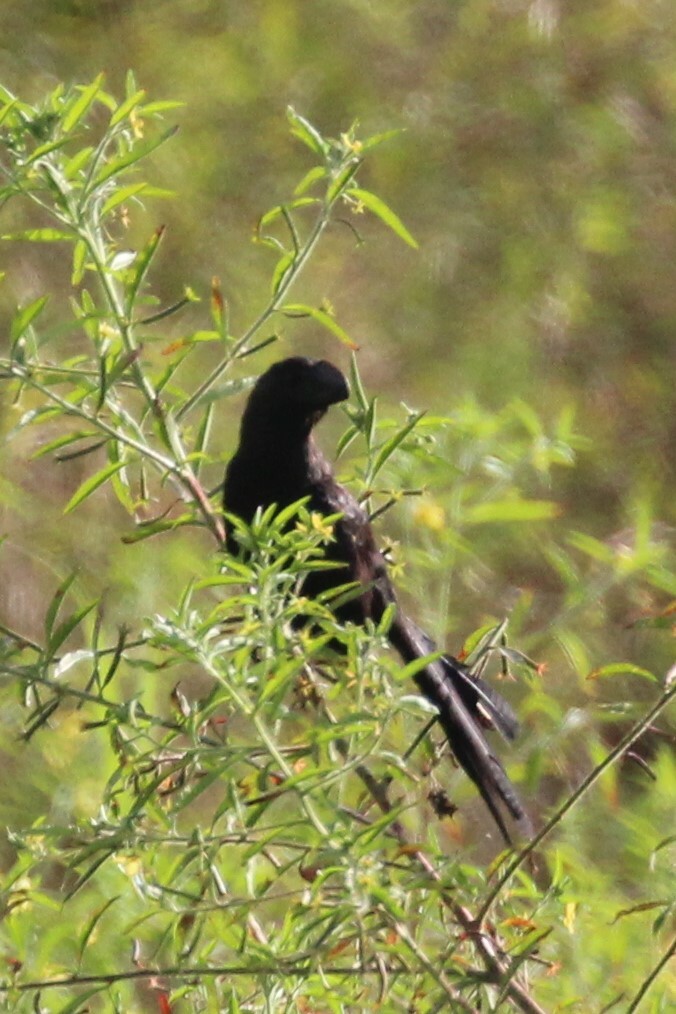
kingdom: Animalia
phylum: Chordata
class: Aves
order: Cuculiformes
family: Cuculidae
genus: Crotophaga
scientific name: Crotophaga ani
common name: Smooth-billed ani
